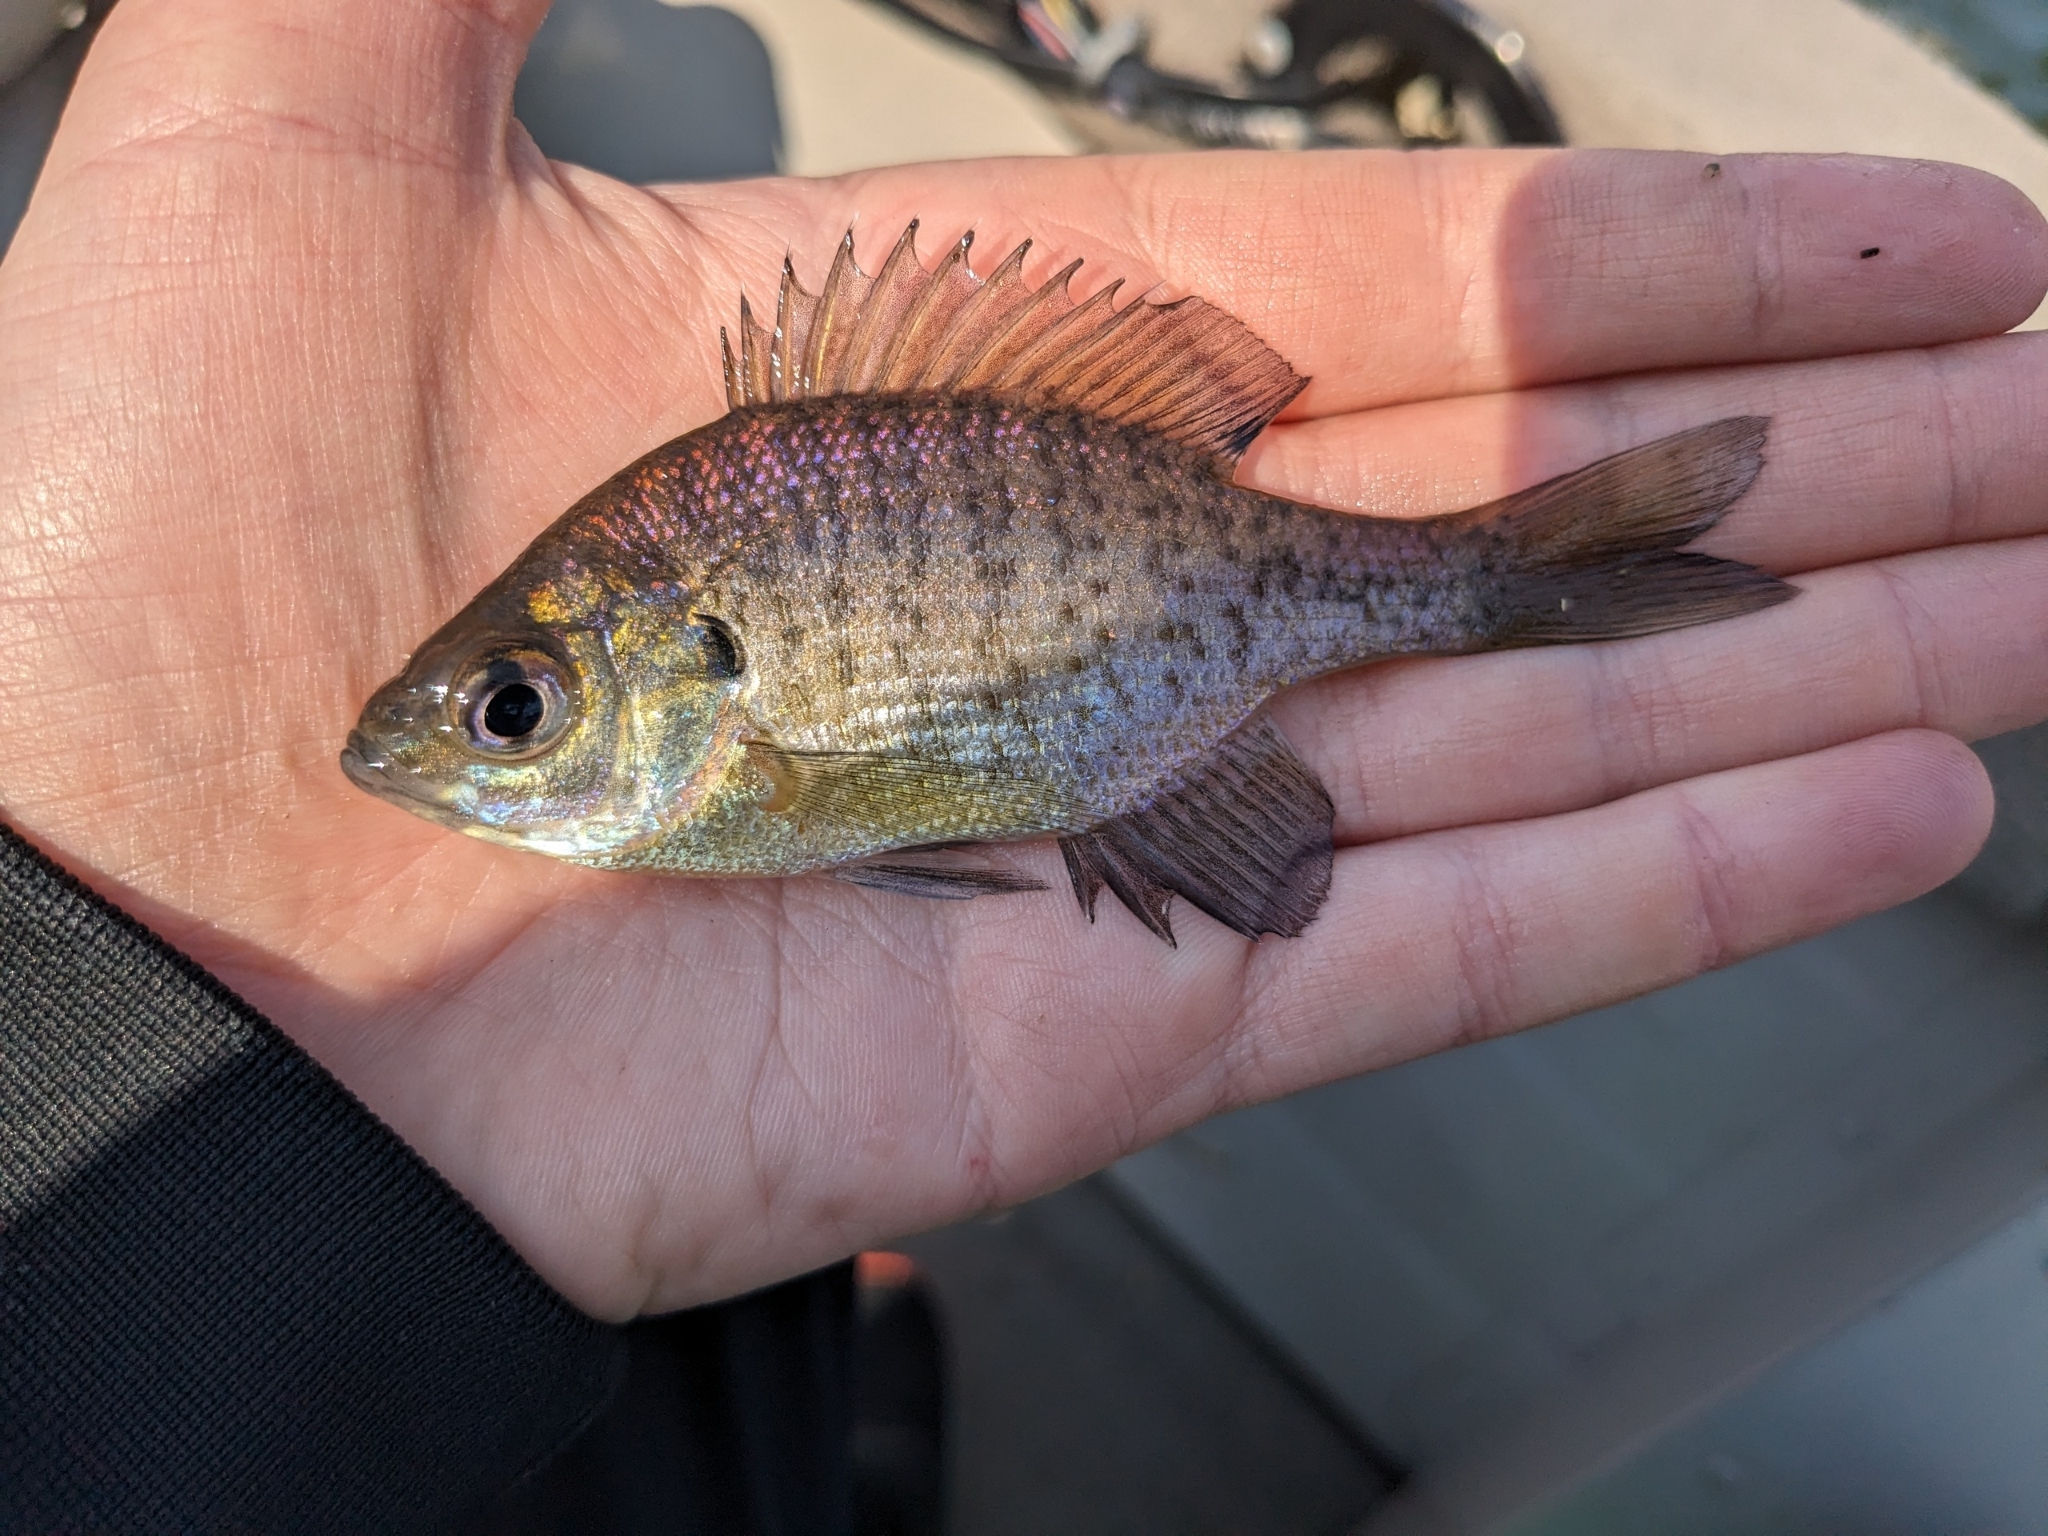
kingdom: Animalia
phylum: Chordata
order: Perciformes
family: Centrarchidae
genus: Lepomis
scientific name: Lepomis macrochirus
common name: Bluegill
